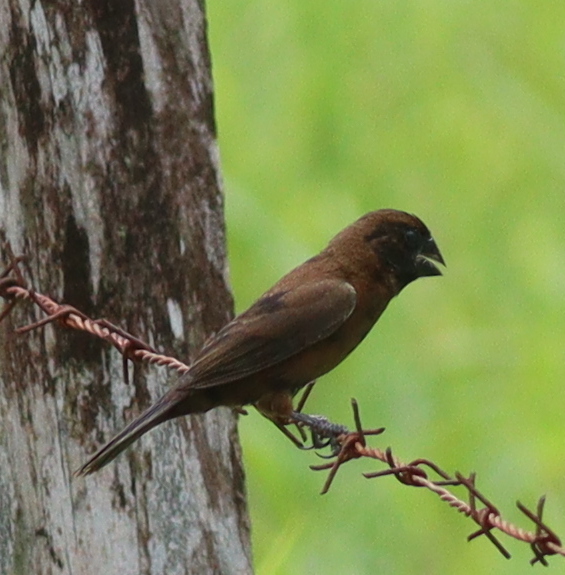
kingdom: Animalia
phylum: Chordata
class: Aves
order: Passeriformes
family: Thraupidae
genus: Sporophila
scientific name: Sporophila funerea
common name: Thick-billed seed-finch
